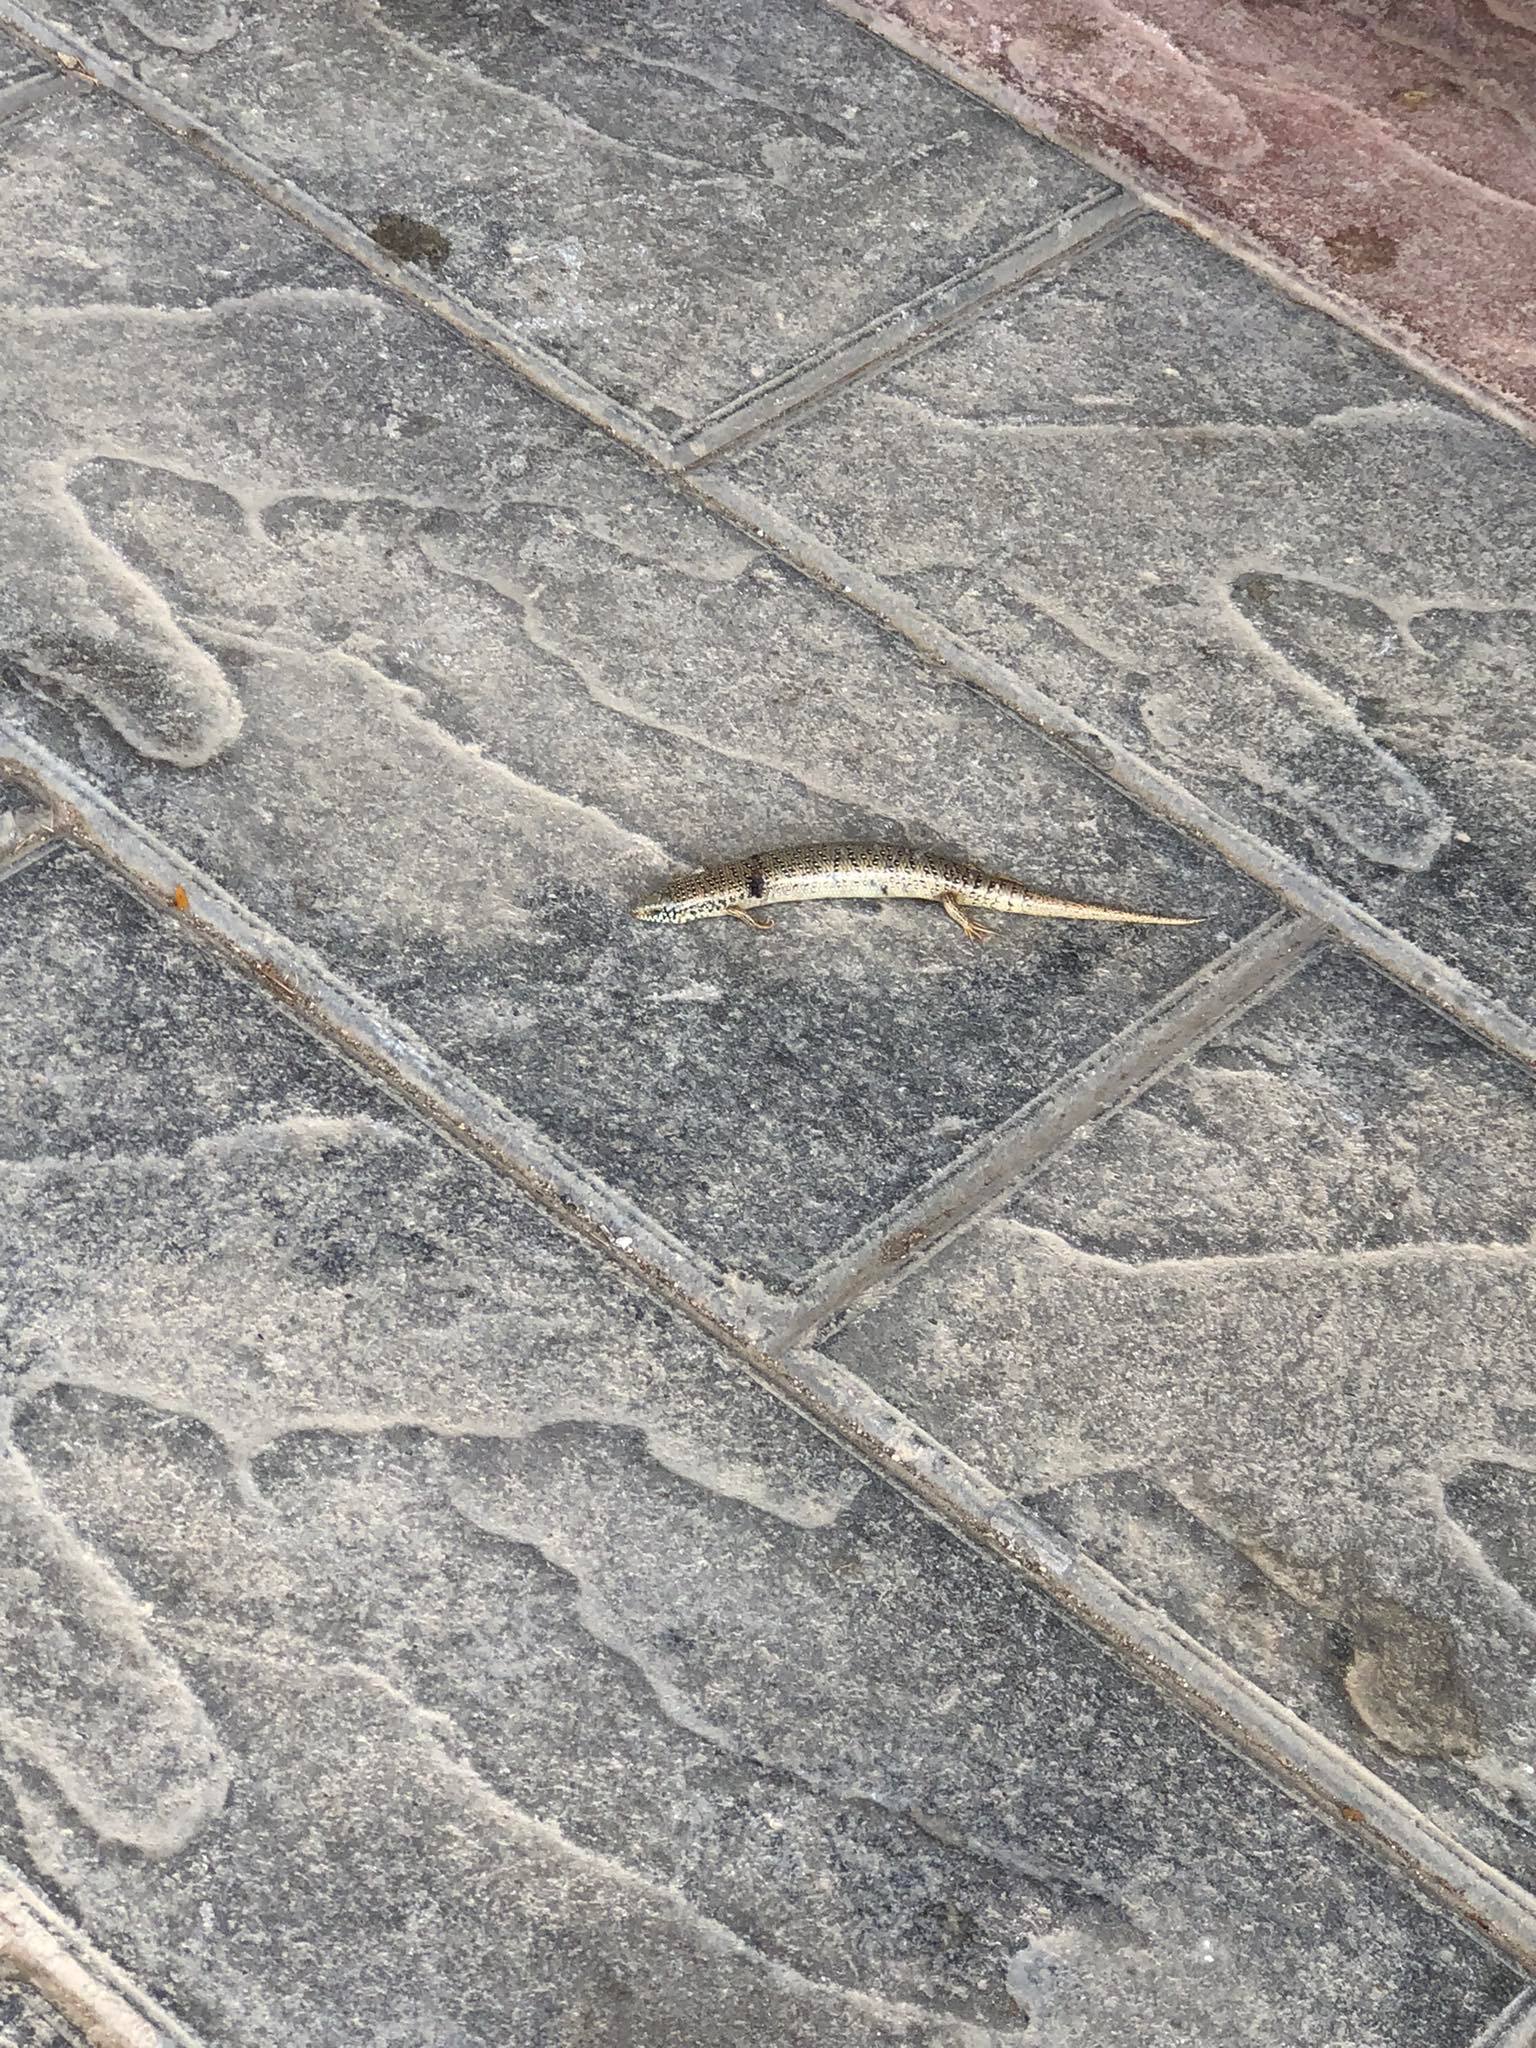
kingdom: Animalia
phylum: Chordata
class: Squamata
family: Scincidae
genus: Chalcides
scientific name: Chalcides ocellatus
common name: Ocellated skink
